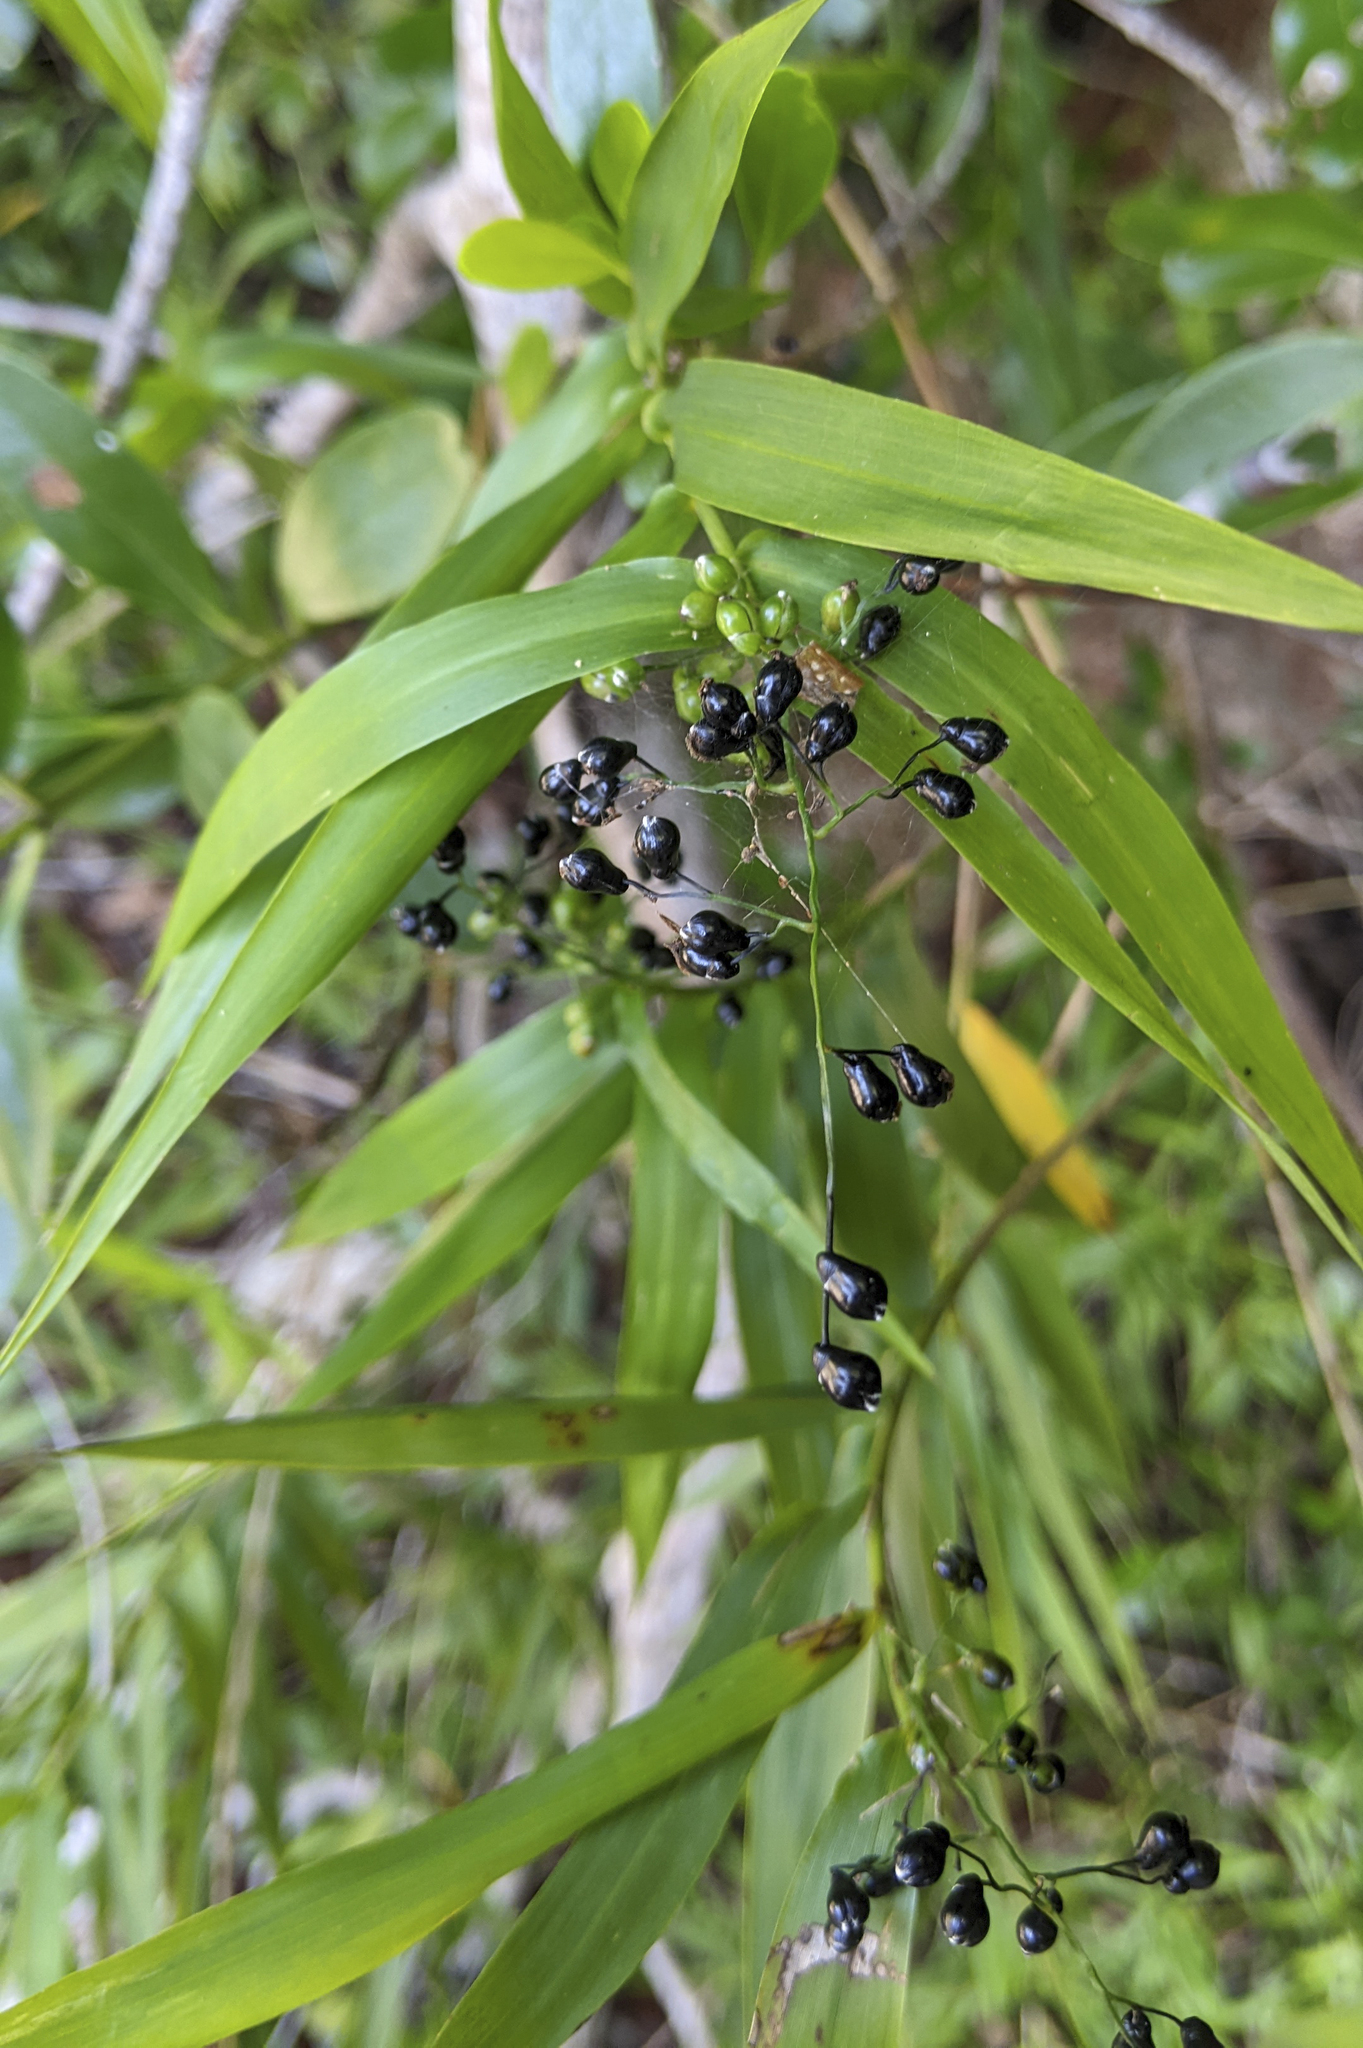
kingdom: Plantae
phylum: Tracheophyta
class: Liliopsida
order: Poales
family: Poaceae
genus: Lasiacis
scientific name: Lasiacis divaricata
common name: Smallcane
